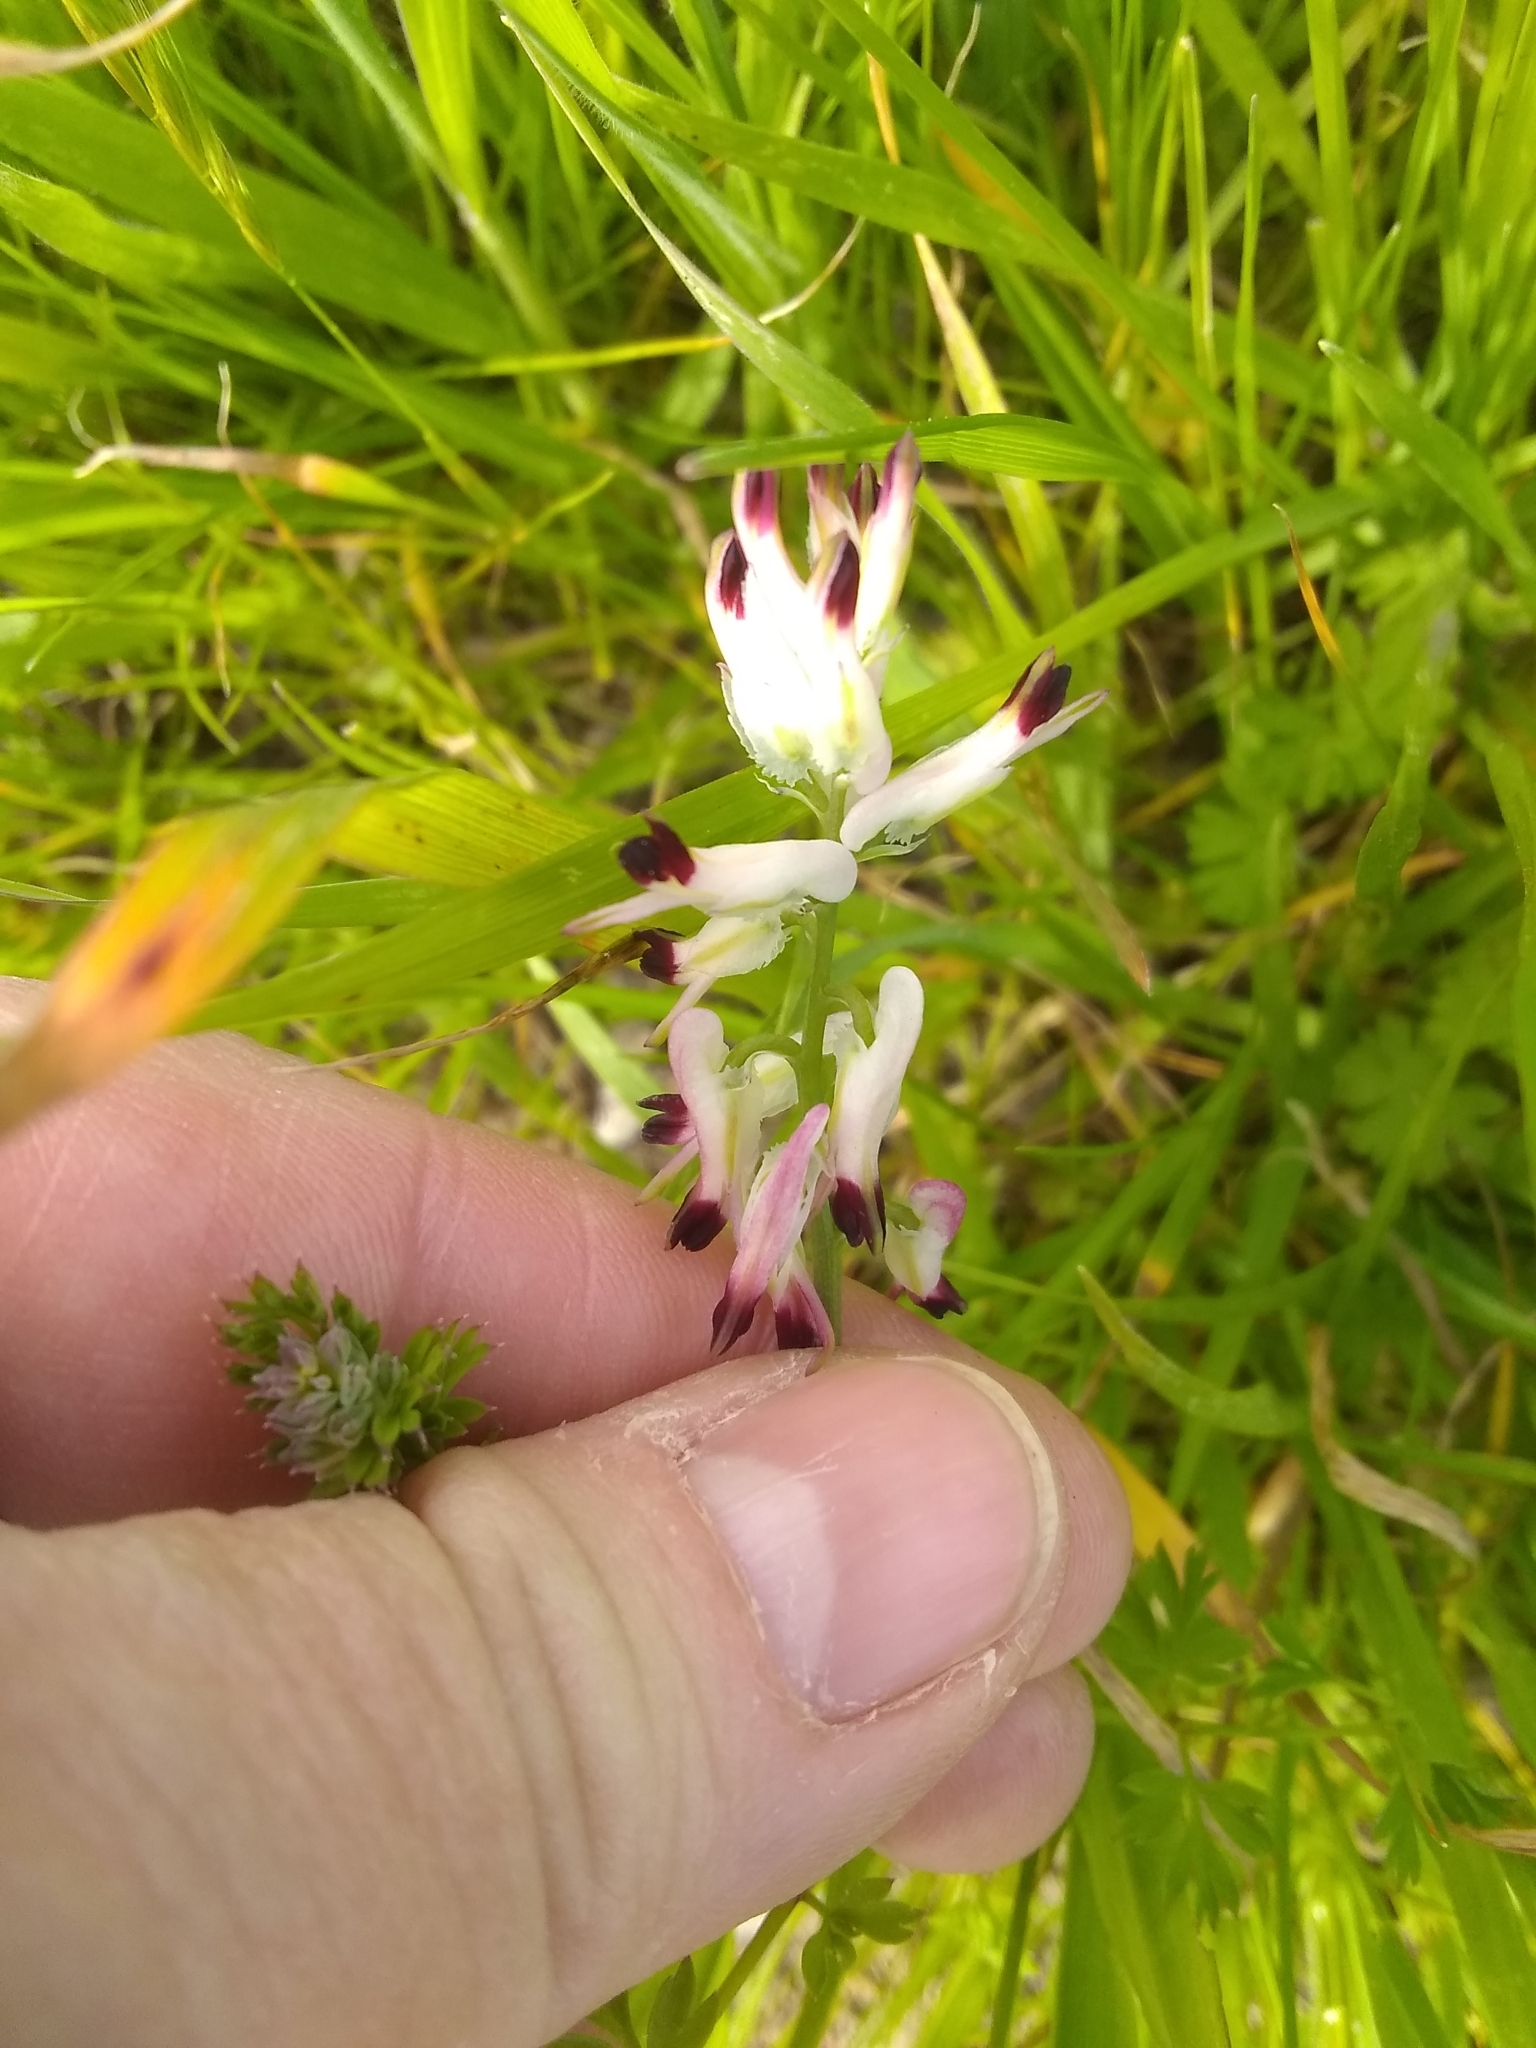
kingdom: Plantae
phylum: Tracheophyta
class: Magnoliopsida
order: Ranunculales
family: Papaveraceae
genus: Fumaria
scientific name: Fumaria capreolata
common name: White ramping-fumitory
